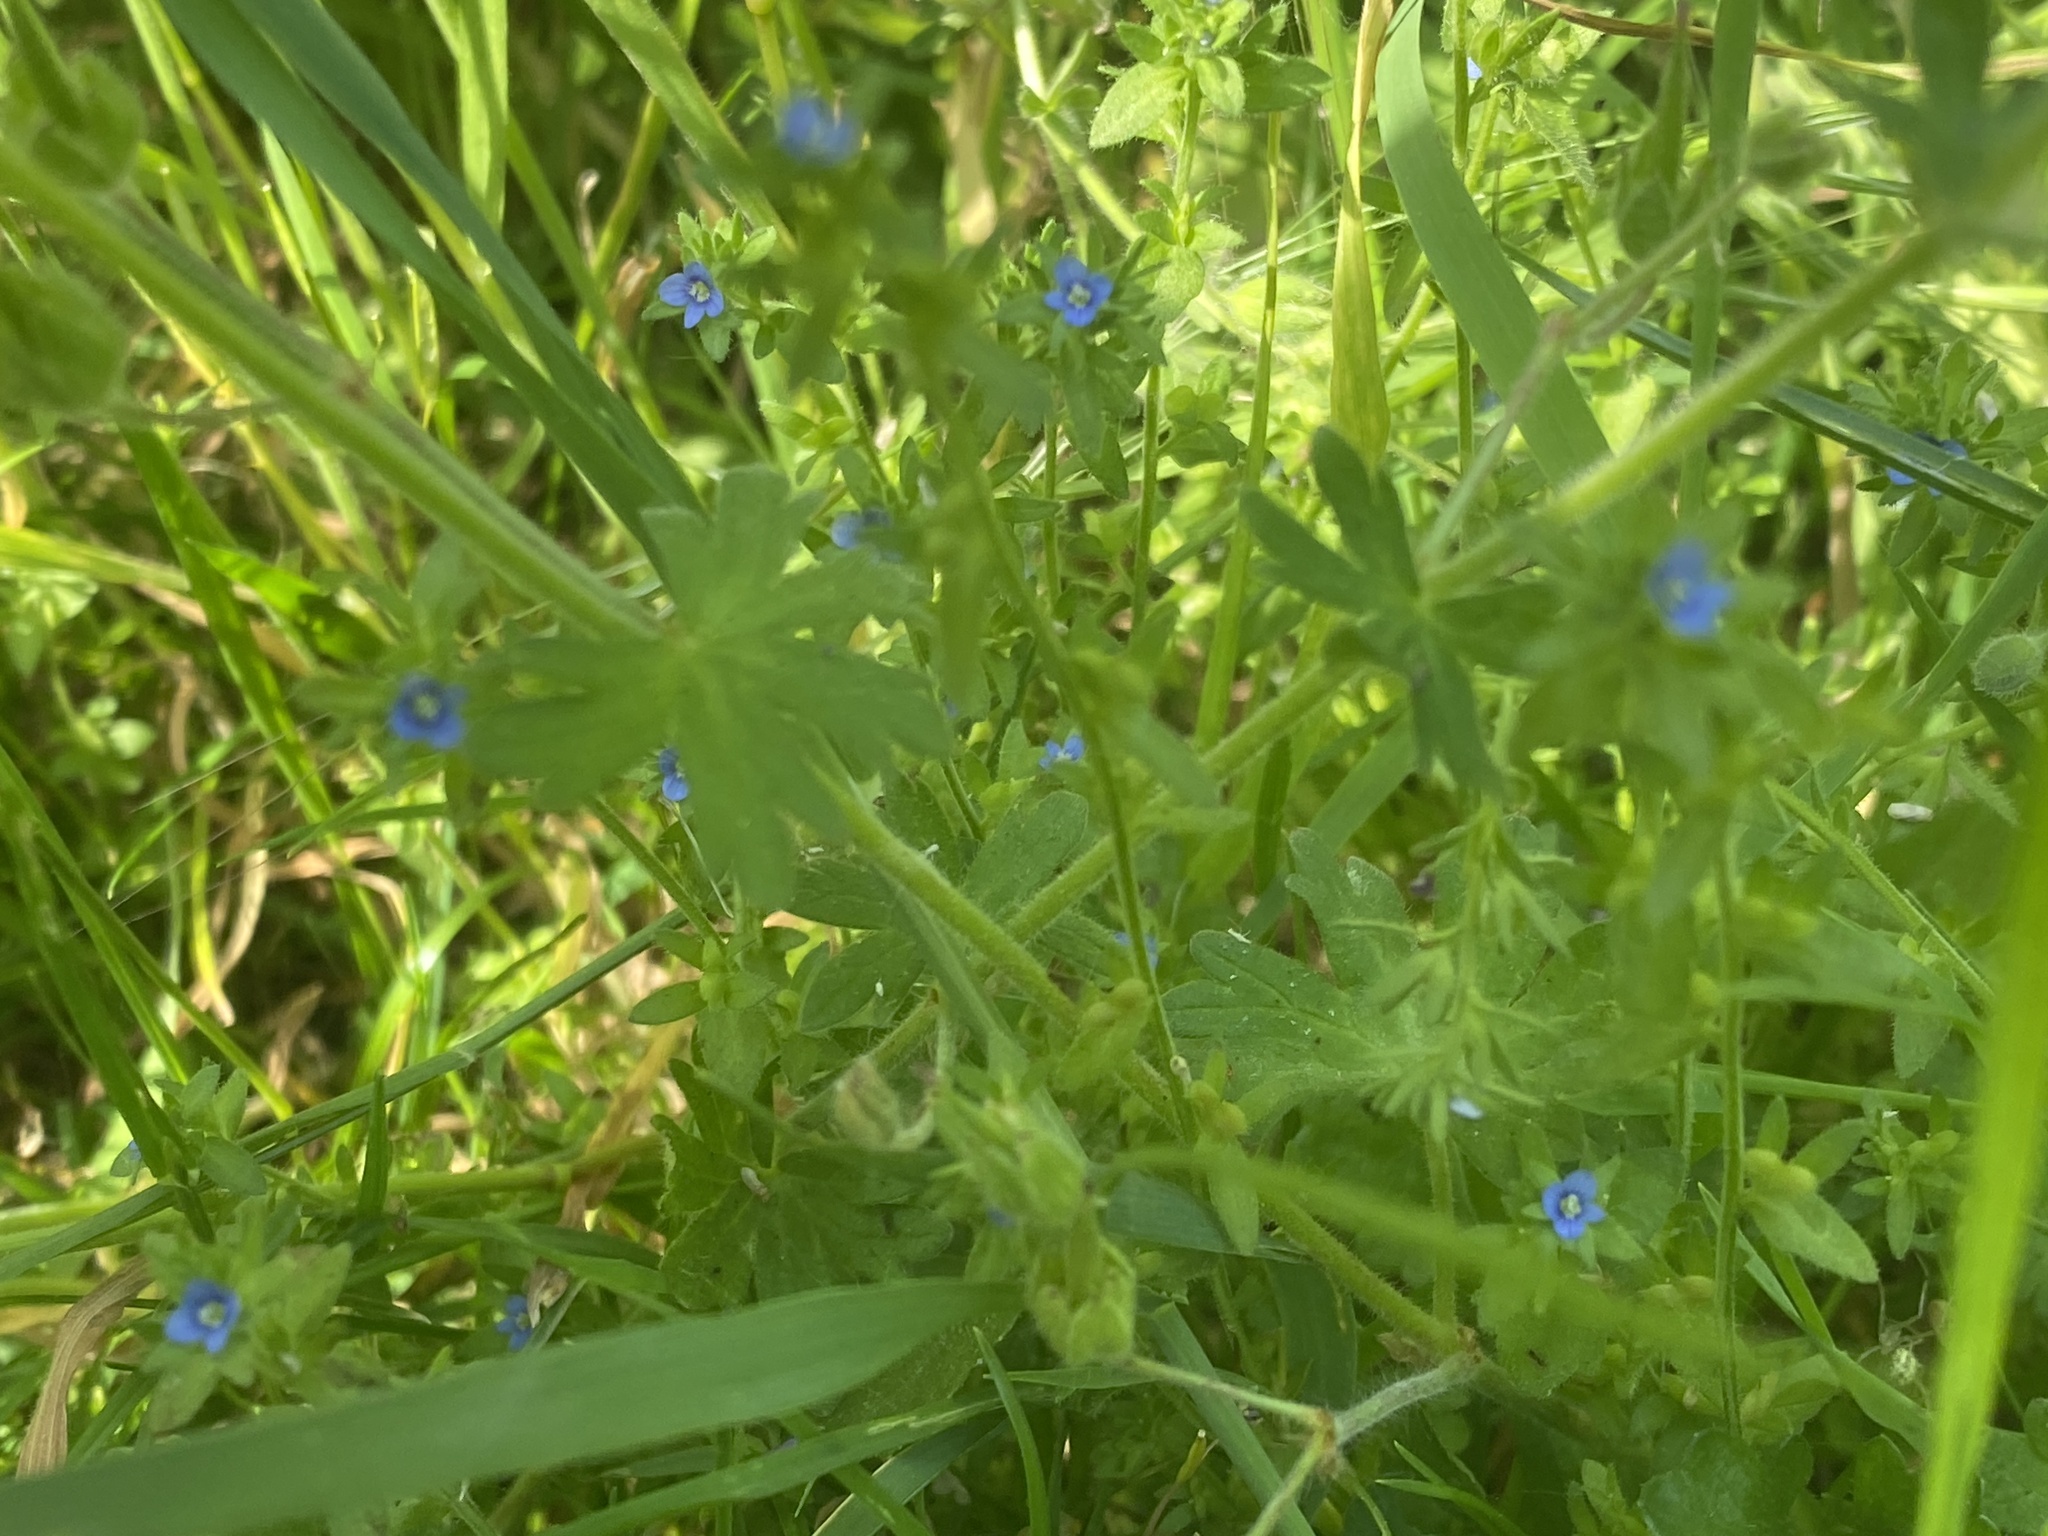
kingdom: Plantae
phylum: Tracheophyta
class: Magnoliopsida
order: Lamiales
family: Plantaginaceae
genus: Veronica
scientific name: Veronica arvensis
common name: Corn speedwell
